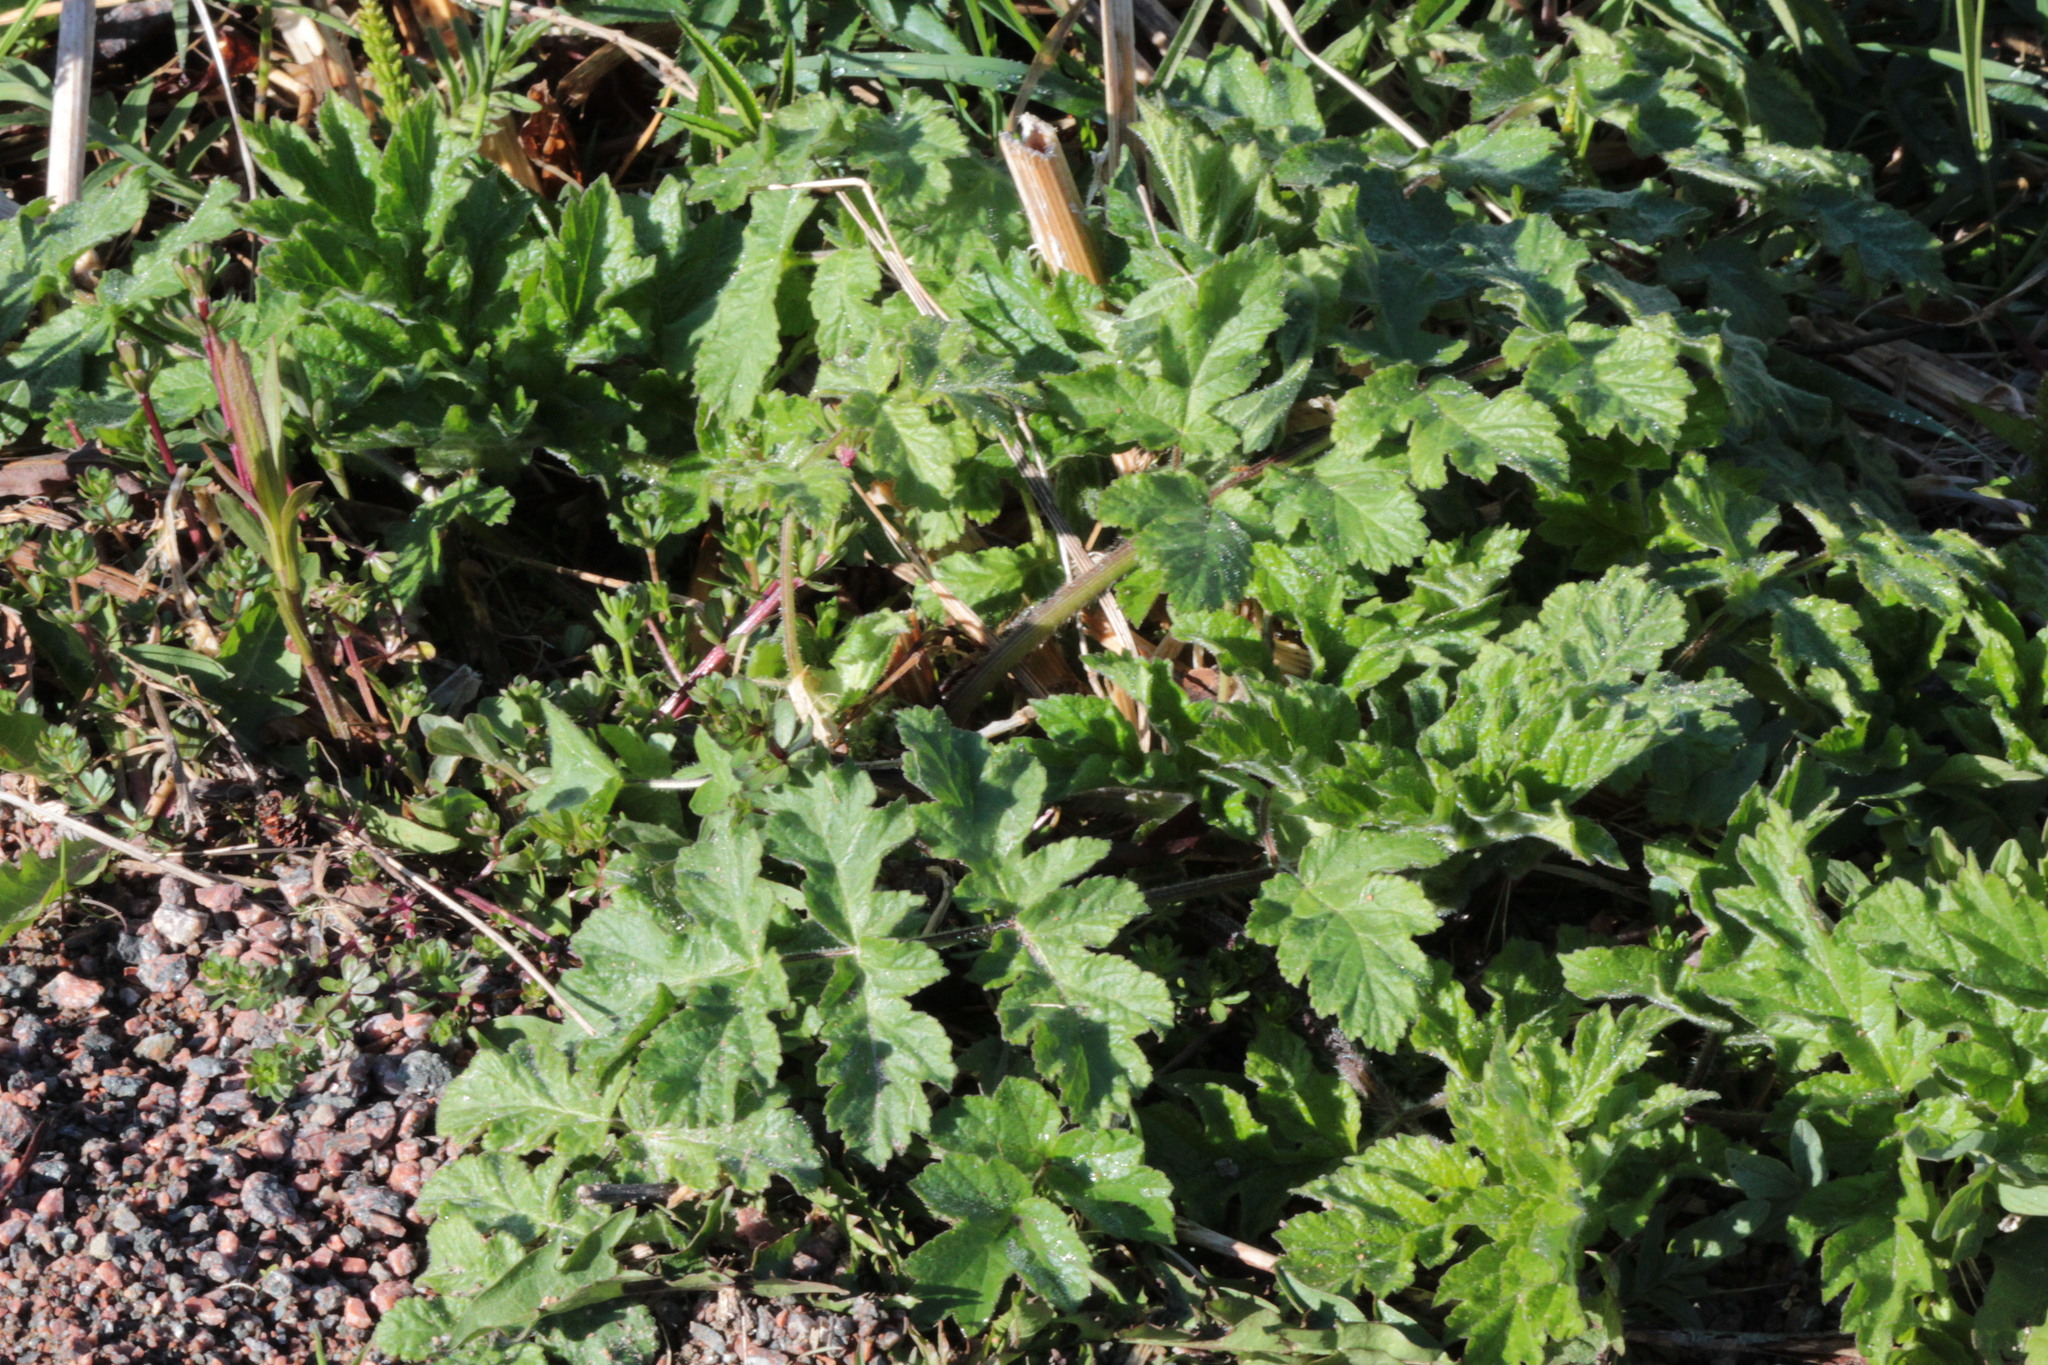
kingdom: Plantae
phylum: Tracheophyta
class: Magnoliopsida
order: Apiales
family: Apiaceae
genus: Heracleum
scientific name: Heracleum sphondylium
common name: Hogweed
